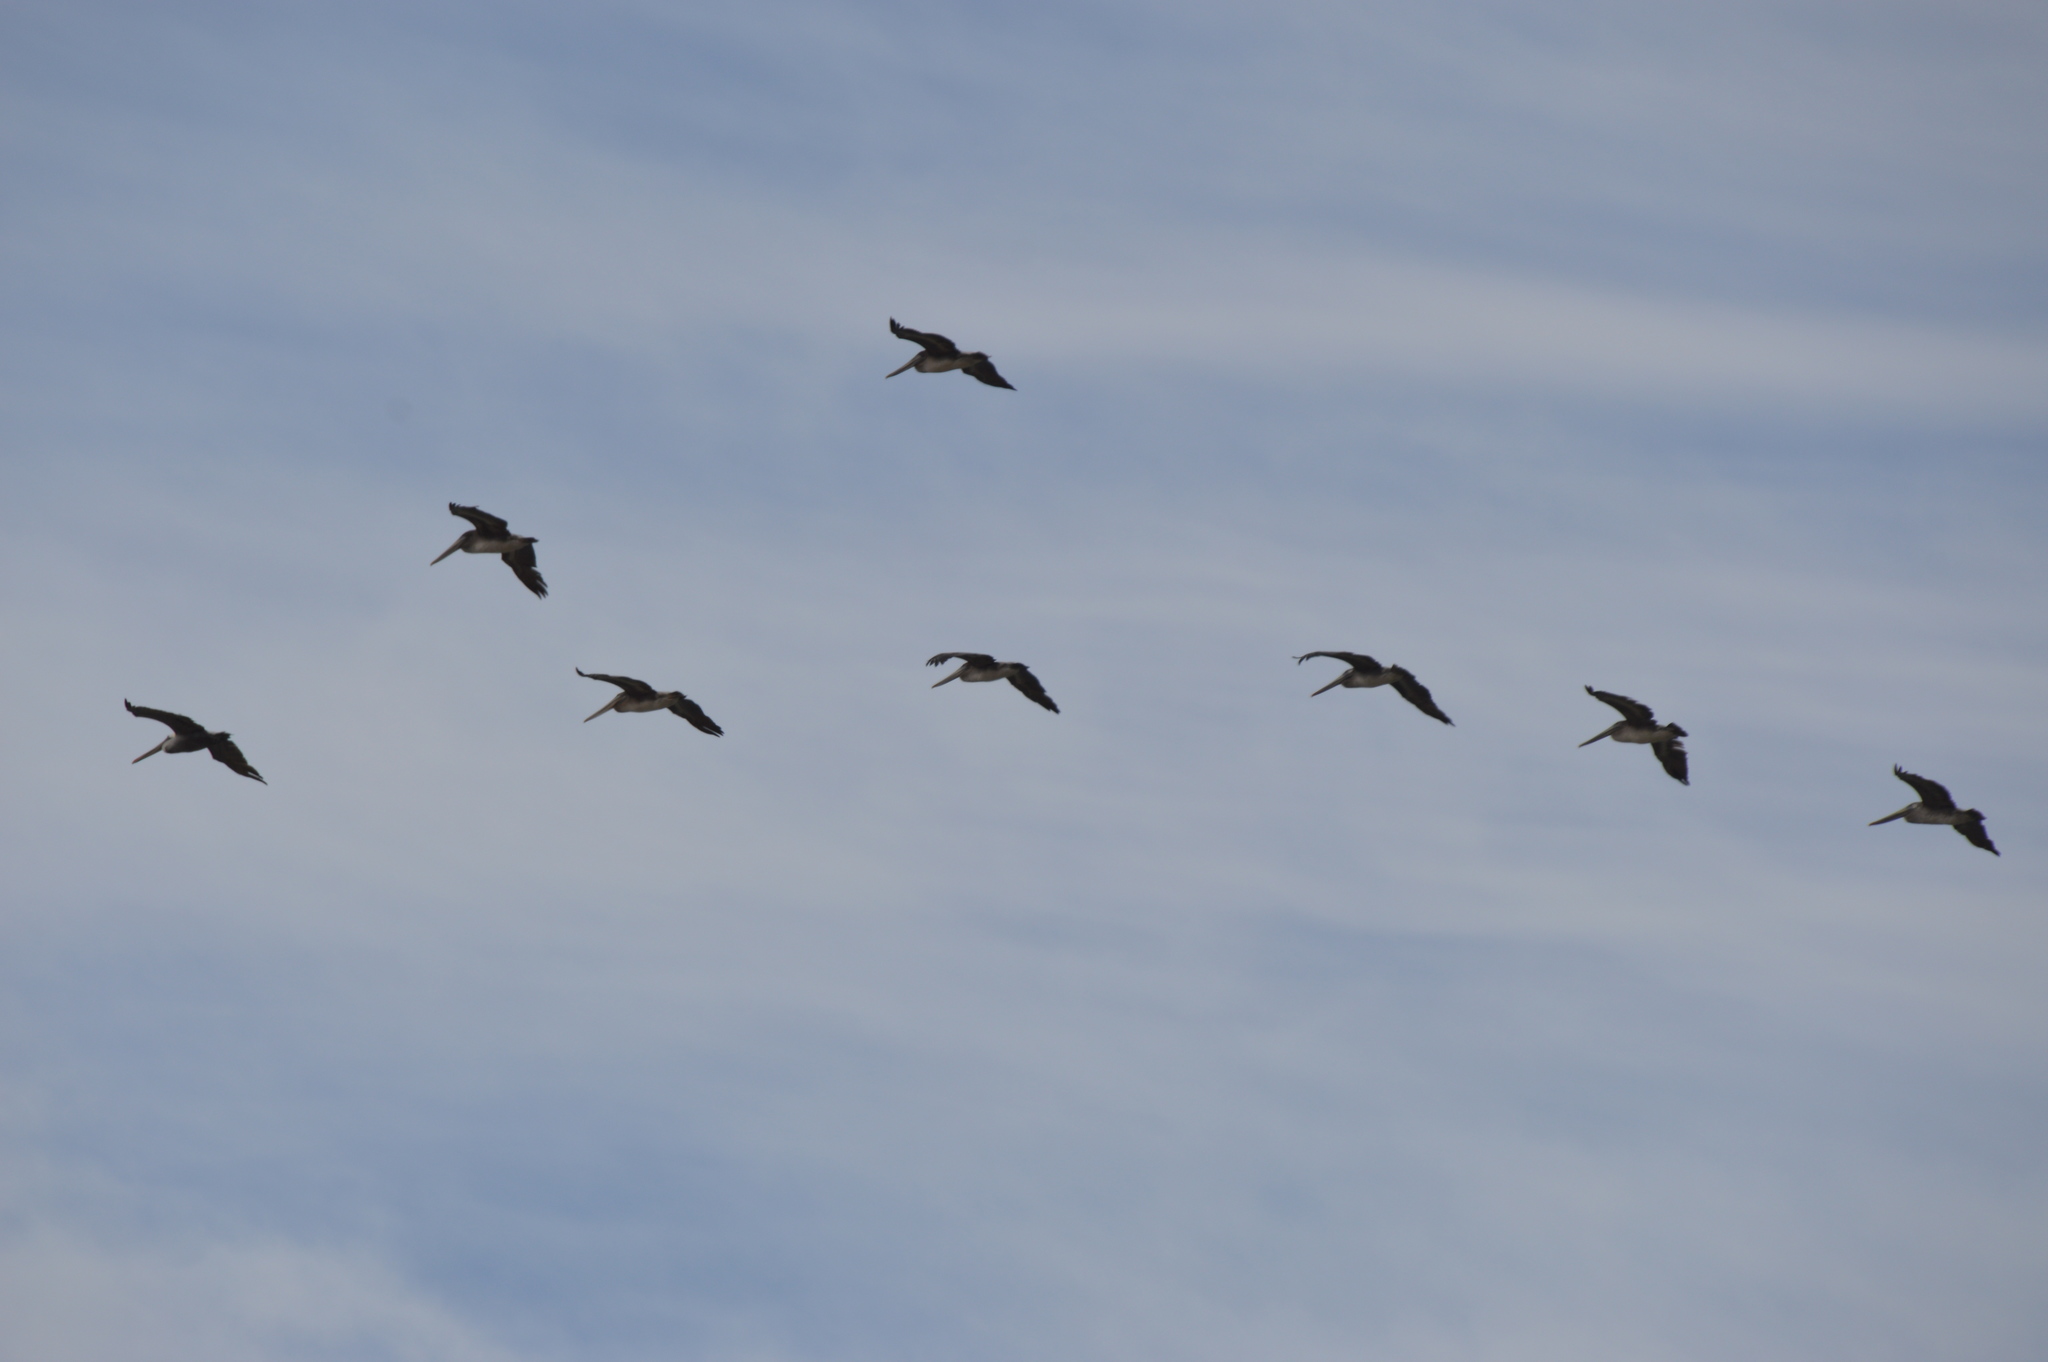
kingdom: Animalia
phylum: Chordata
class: Aves
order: Pelecaniformes
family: Pelecanidae
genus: Pelecanus
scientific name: Pelecanus occidentalis
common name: Brown pelican
